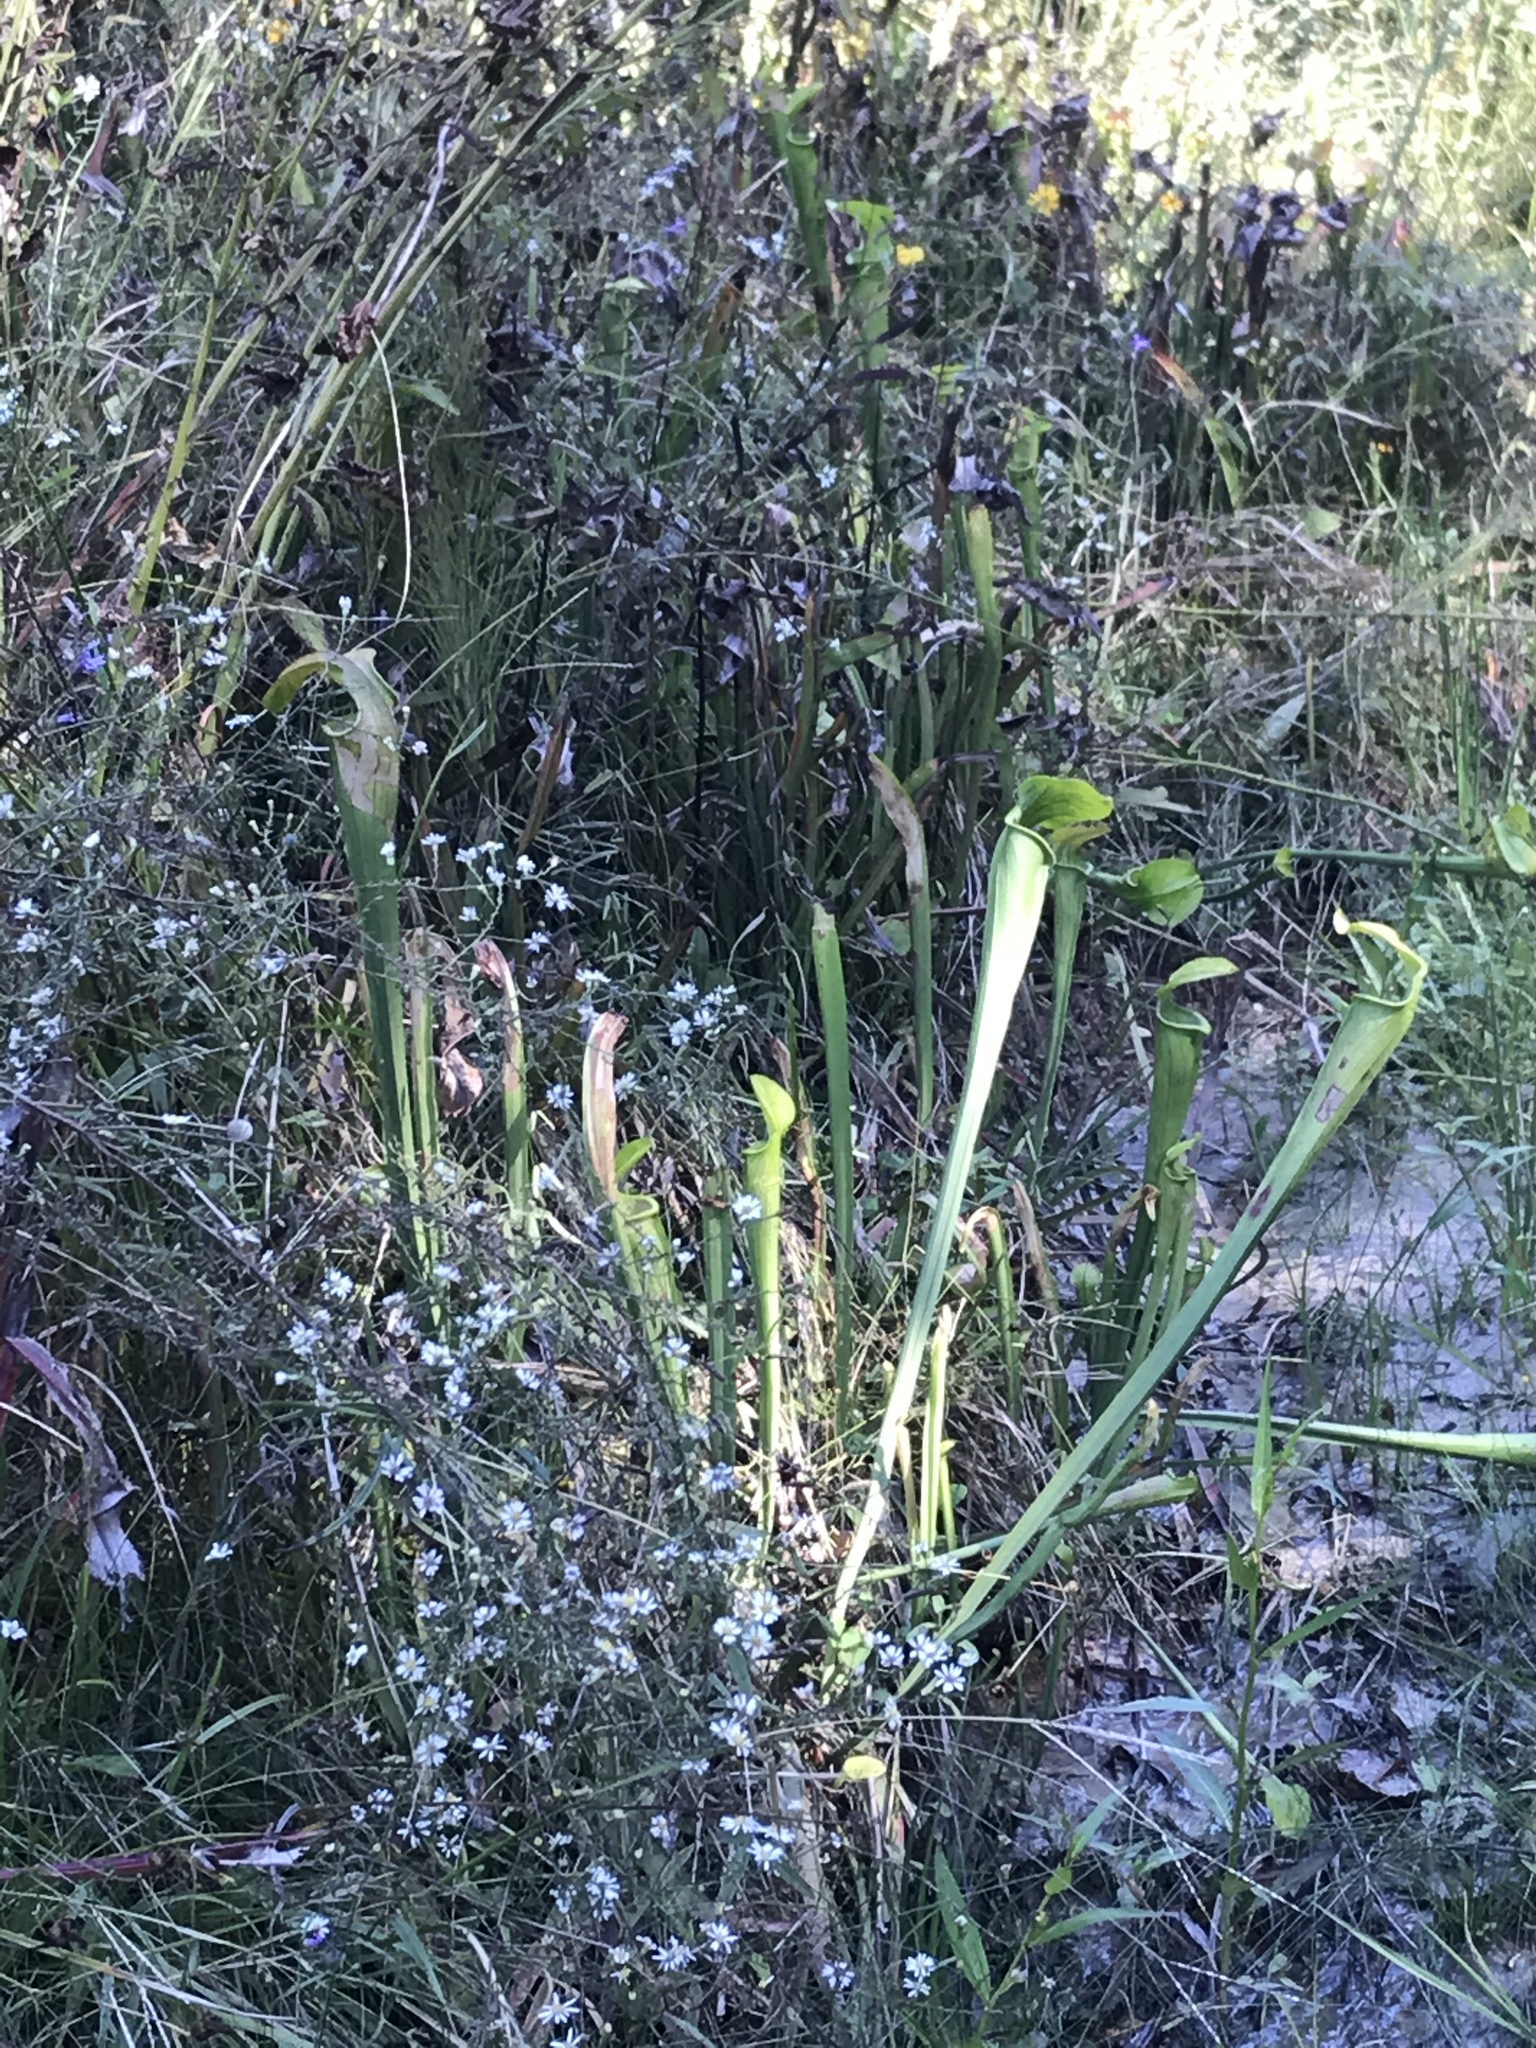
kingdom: Plantae
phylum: Tracheophyta
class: Magnoliopsida
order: Ericales
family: Sarraceniaceae
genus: Sarracenia
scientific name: Sarracenia alata
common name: Yellow trumpets
